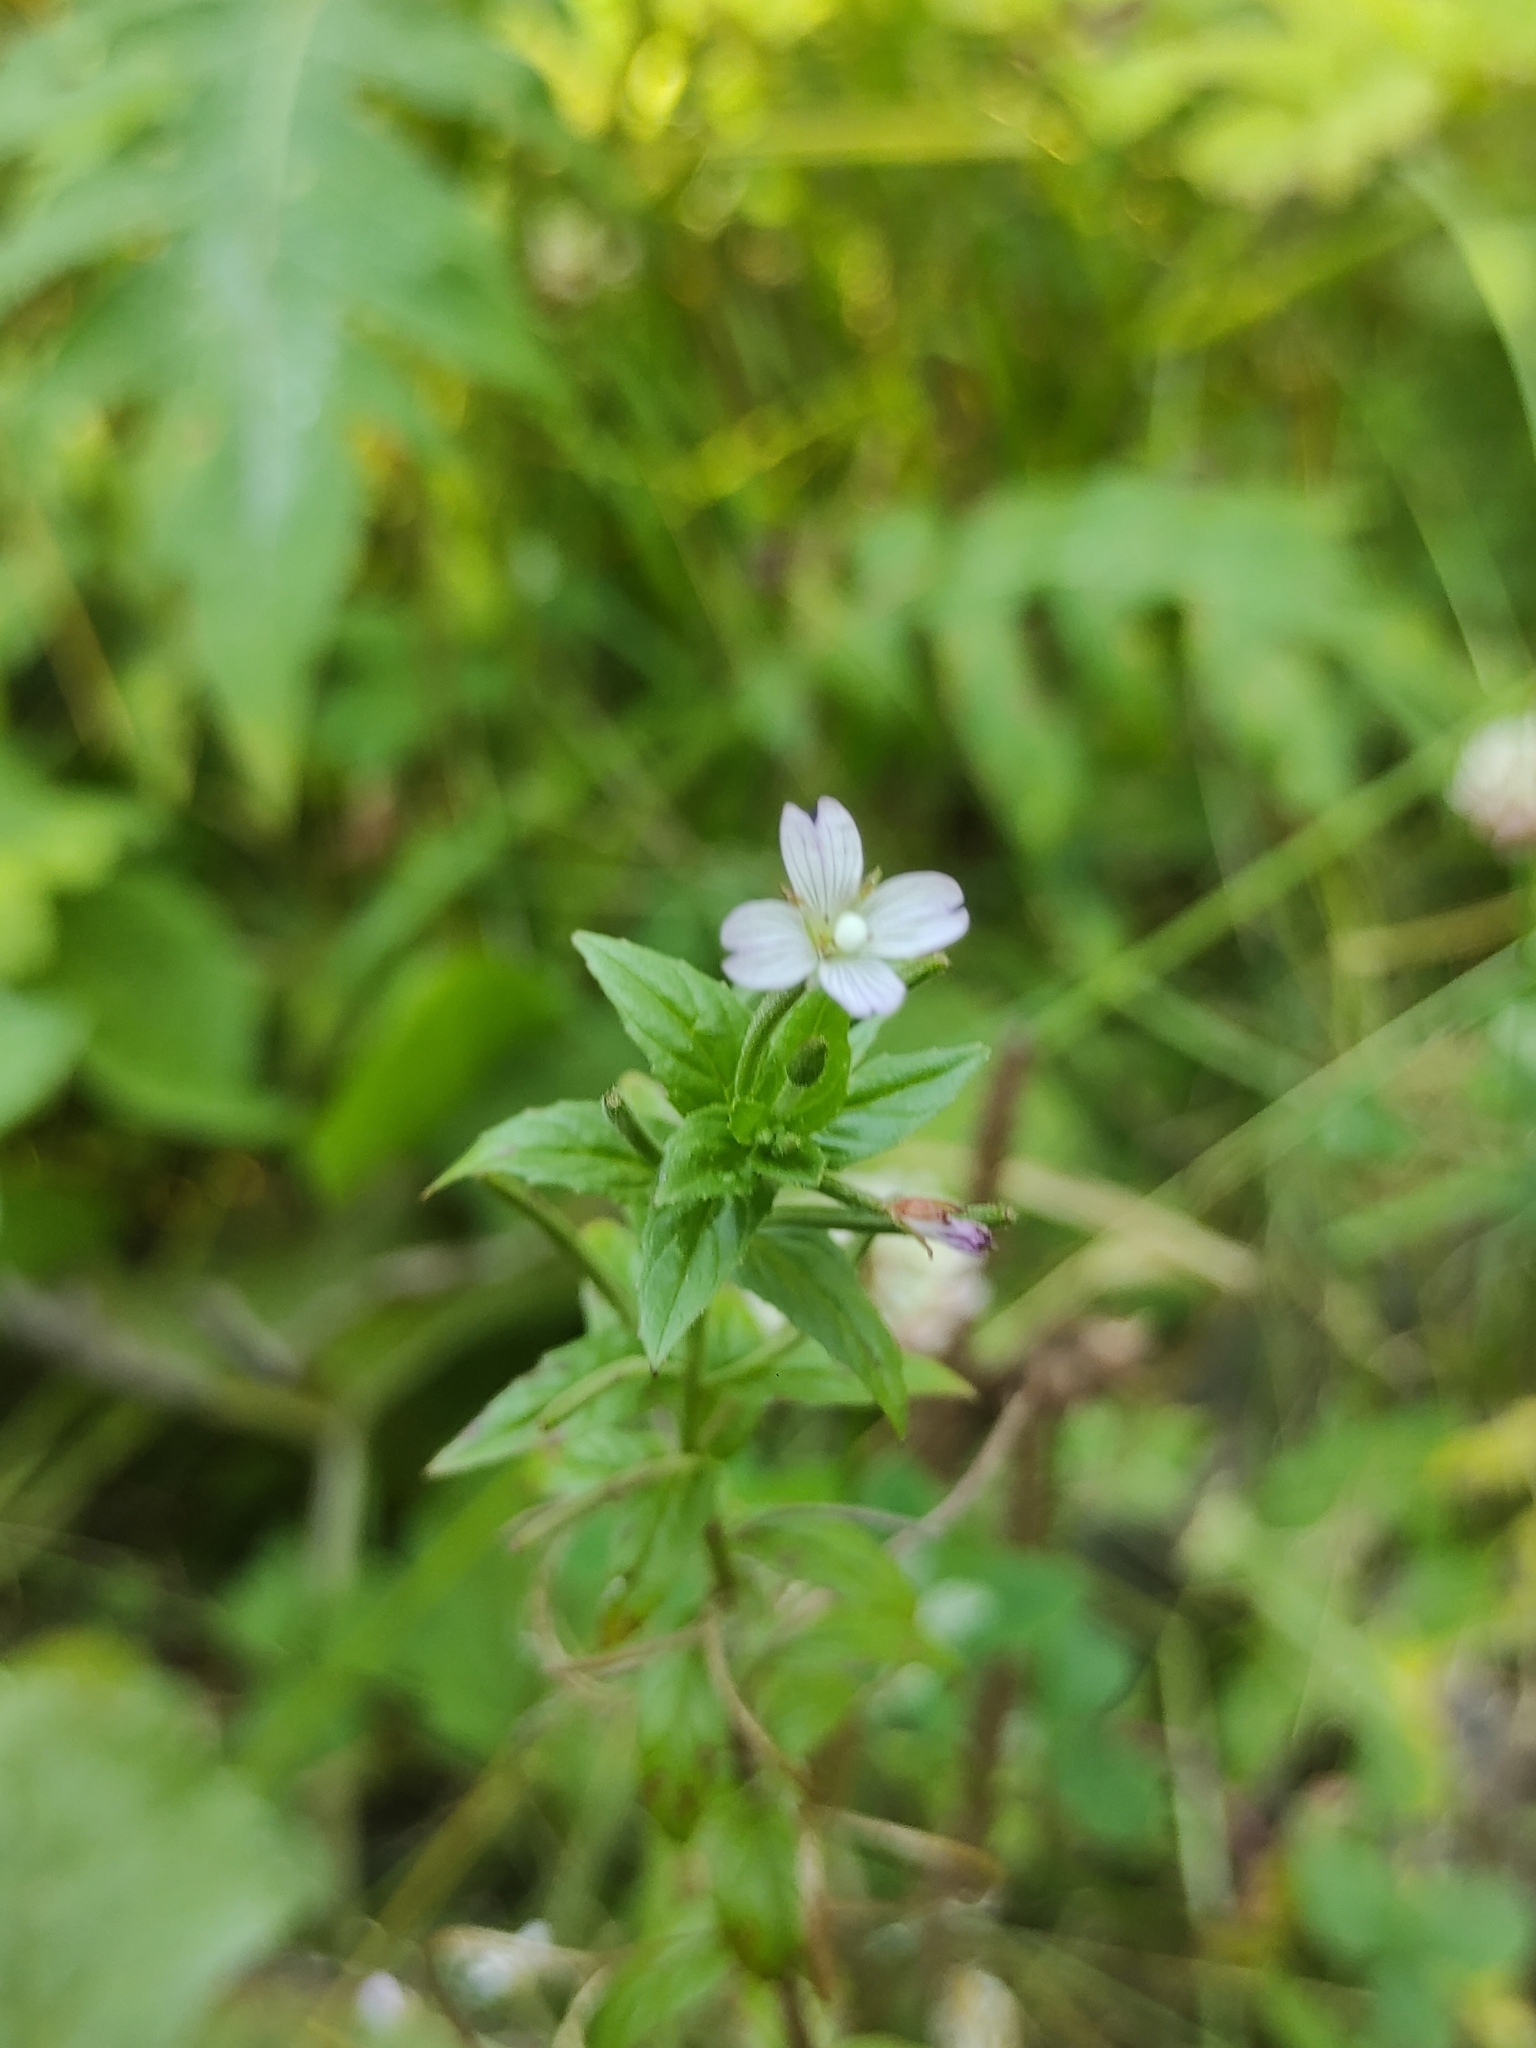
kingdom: Plantae
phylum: Tracheophyta
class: Magnoliopsida
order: Myrtales
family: Onagraceae
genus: Epilobium
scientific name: Epilobium ciliatum
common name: American willowherb
